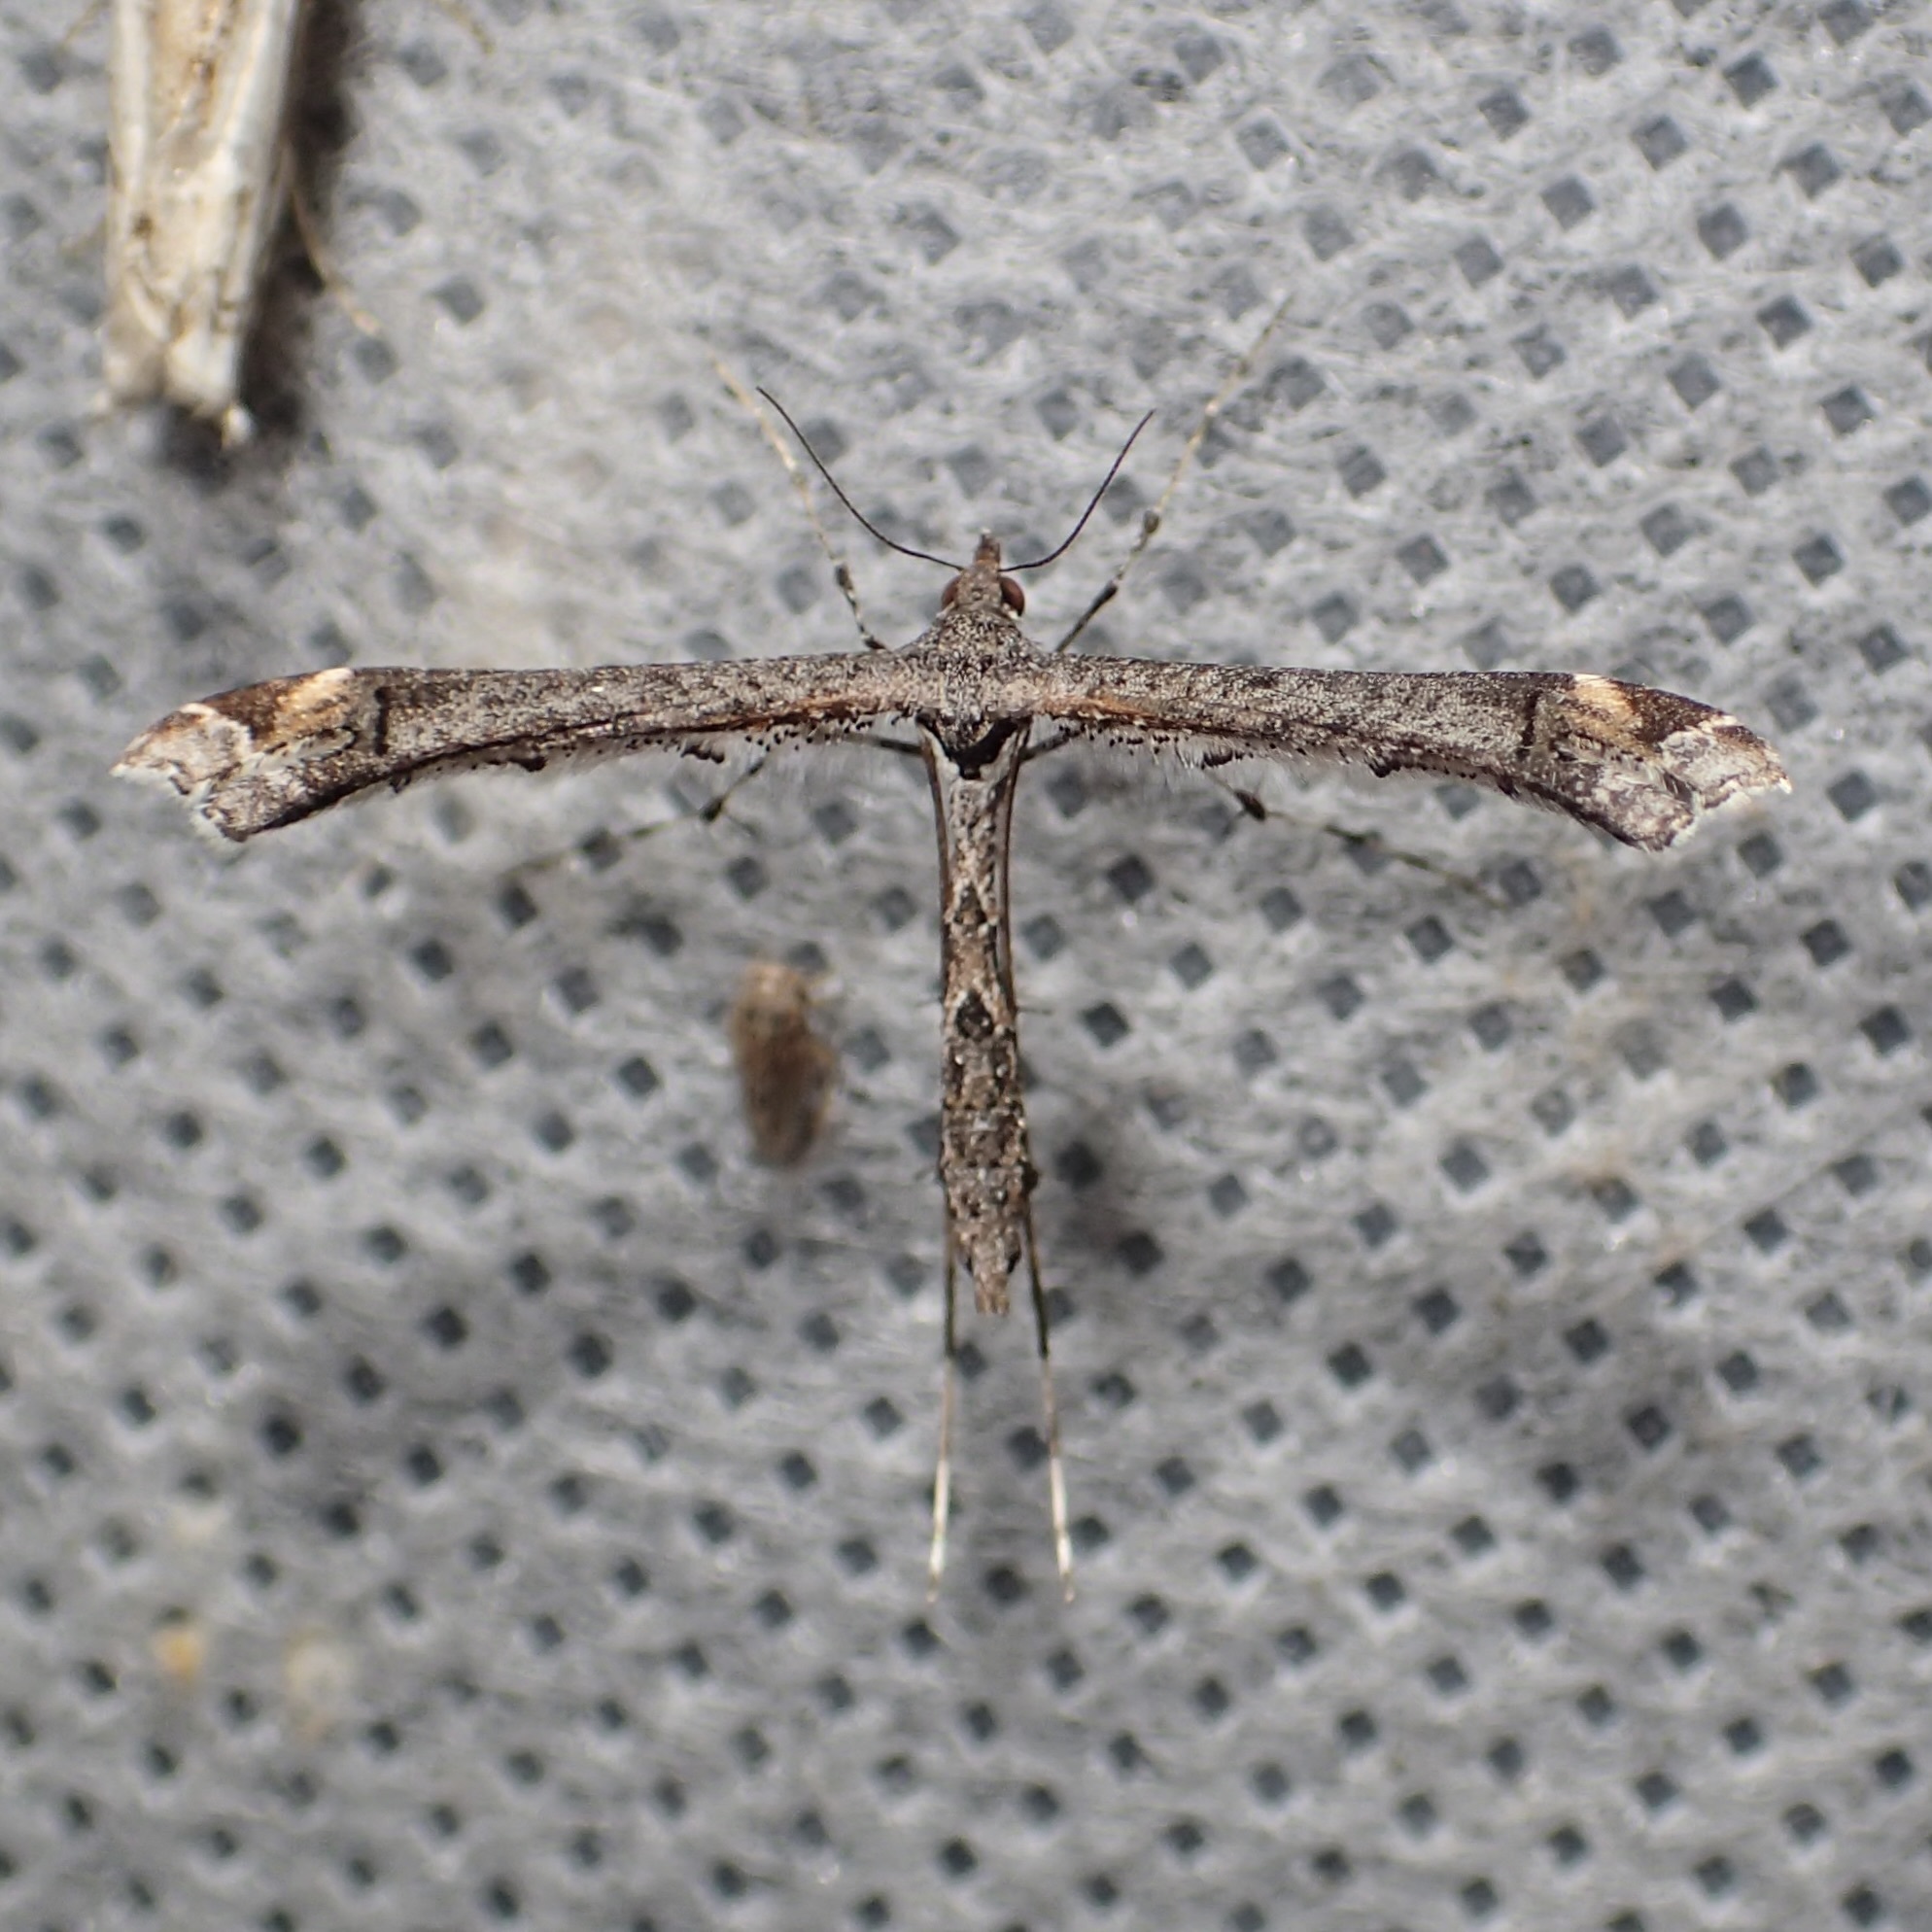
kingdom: Animalia
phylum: Arthropoda
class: Insecta
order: Lepidoptera
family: Pterophoridae
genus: Anstenoptilia
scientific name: Anstenoptilia marmarodactyla
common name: Moth
